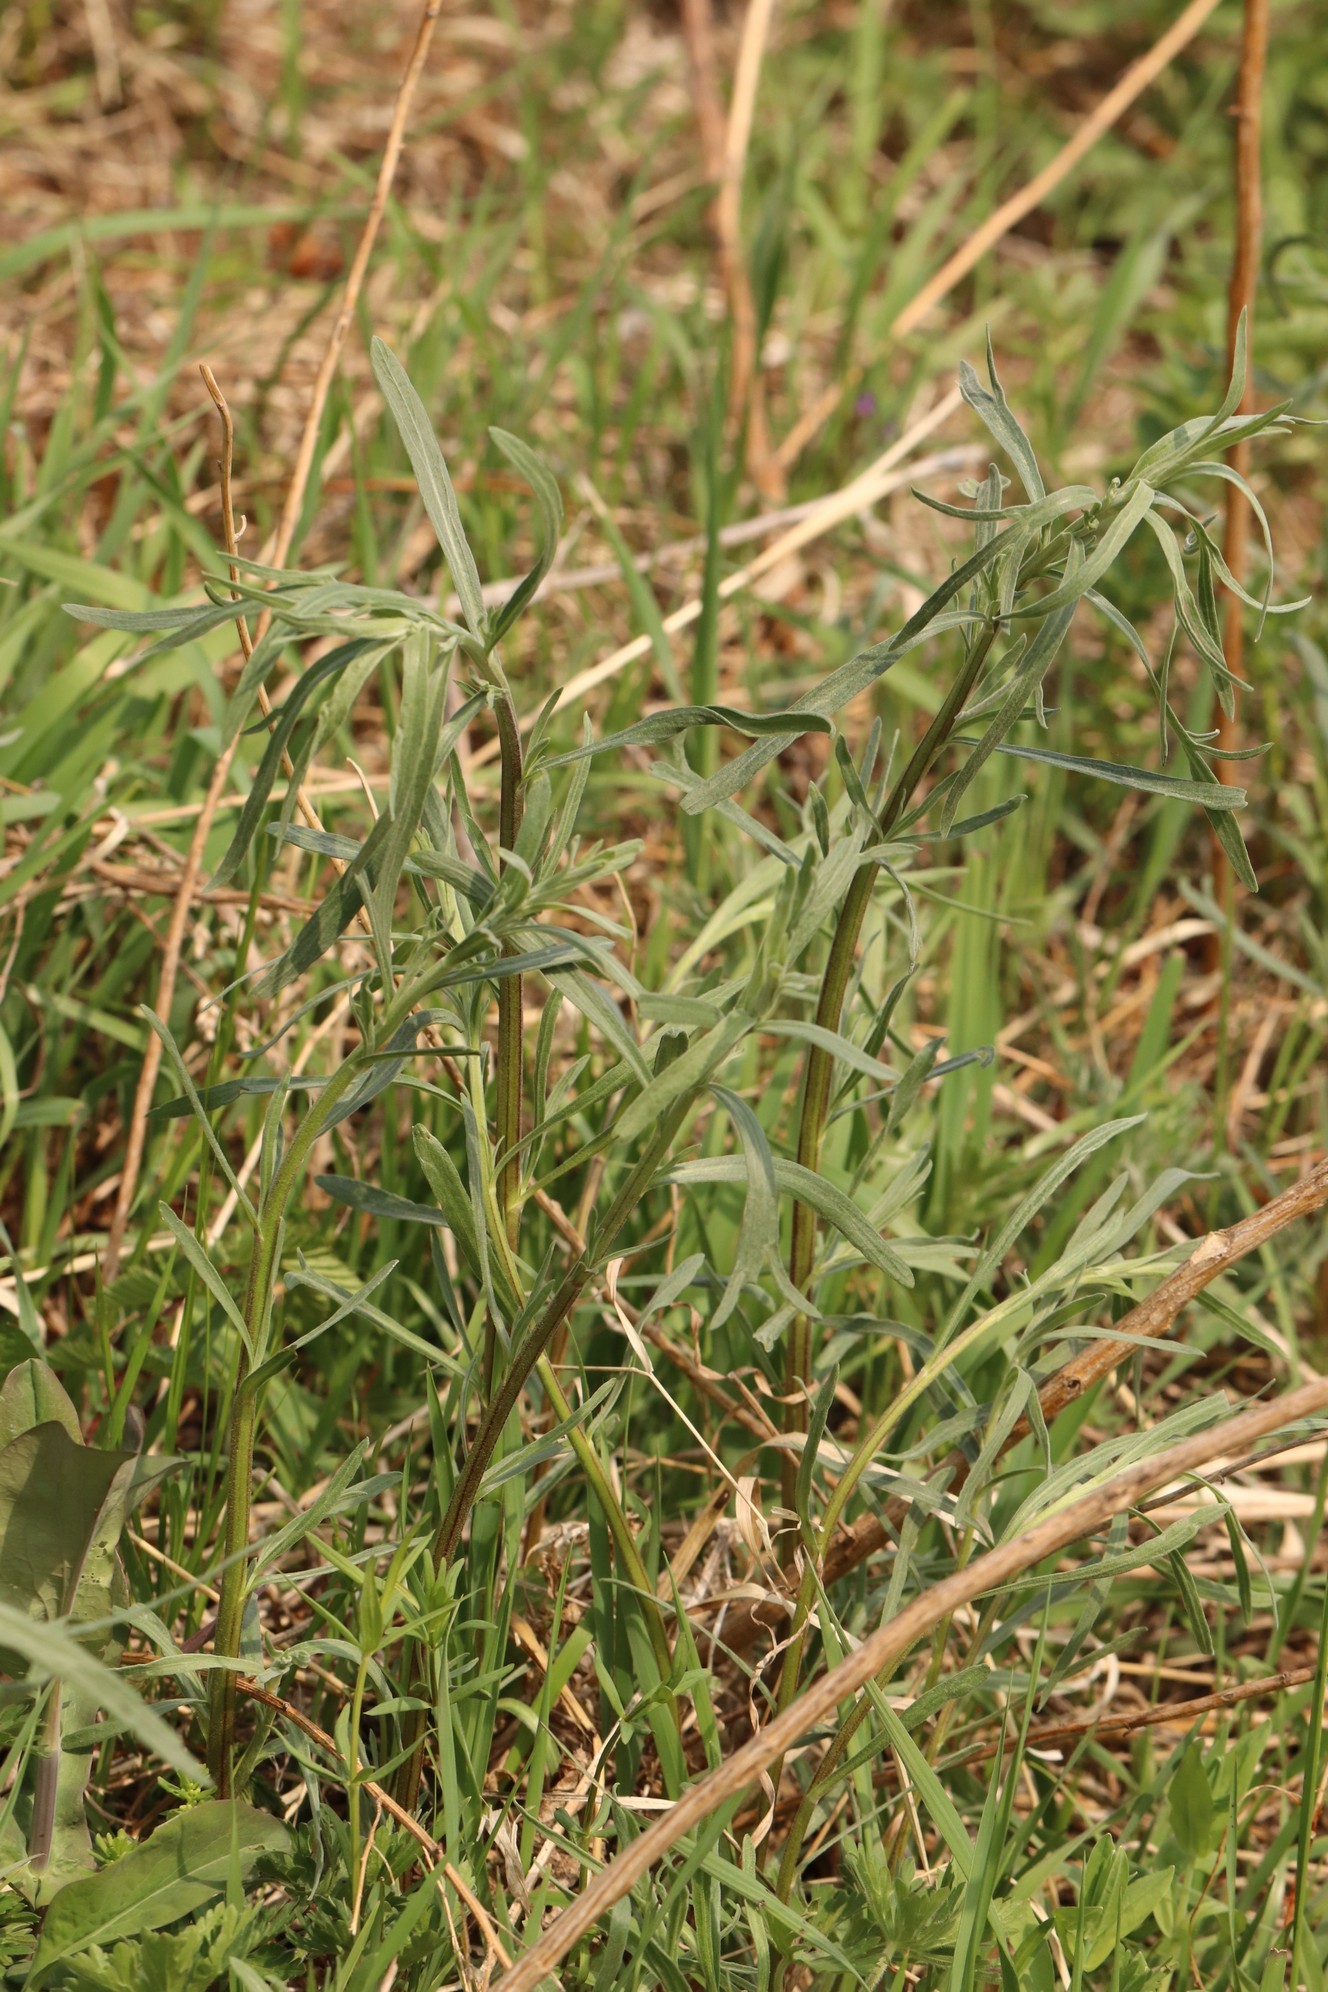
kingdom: Plantae
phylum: Tracheophyta
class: Magnoliopsida
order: Asterales
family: Asteraceae
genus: Artemisia
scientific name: Artemisia dracunculus
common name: Tarragon
